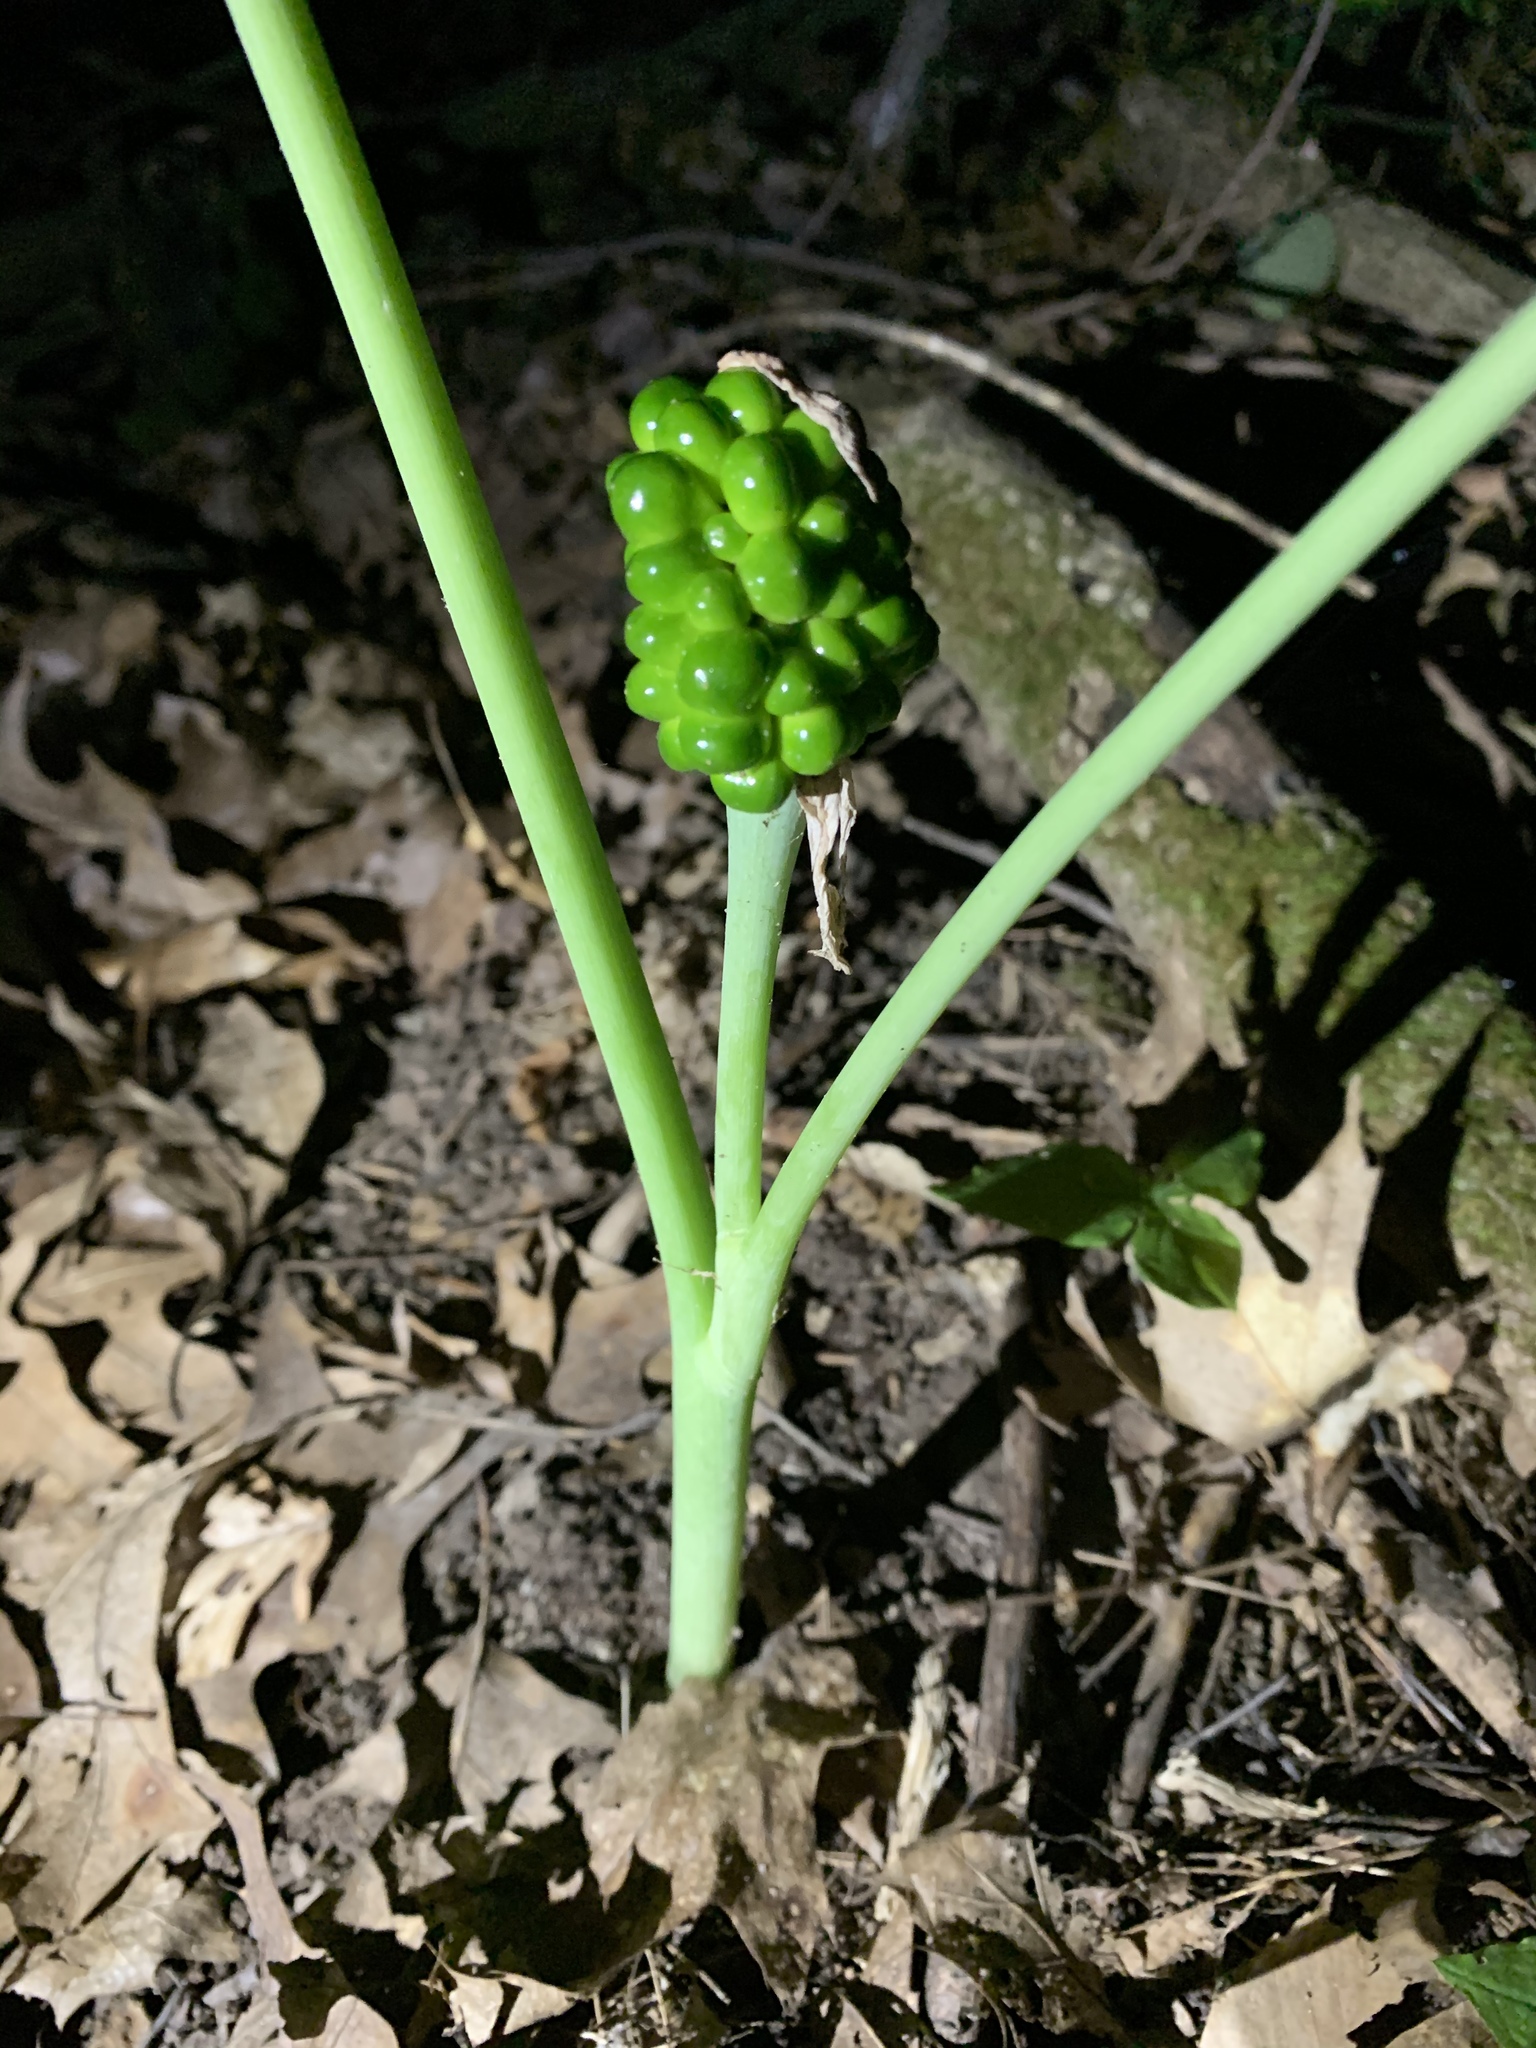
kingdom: Plantae
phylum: Tracheophyta
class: Liliopsida
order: Alismatales
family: Araceae
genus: Arisaema
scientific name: Arisaema triphyllum
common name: Jack-in-the-pulpit
